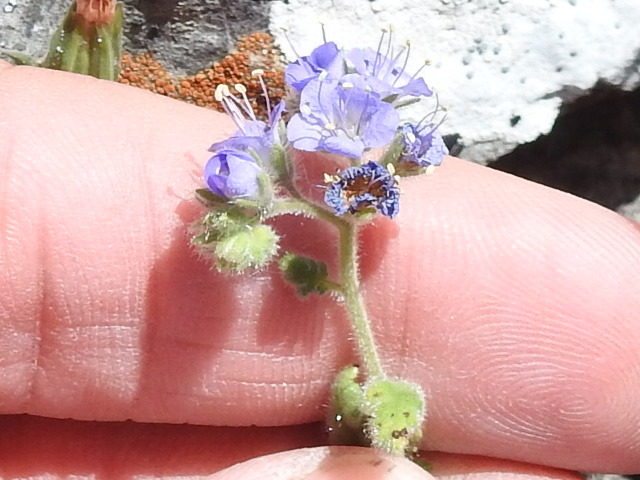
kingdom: Plantae
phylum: Tracheophyta
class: Magnoliopsida
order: Boraginales
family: Hydrophyllaceae
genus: Phacelia
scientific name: Phacelia congesta
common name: Blue curls
